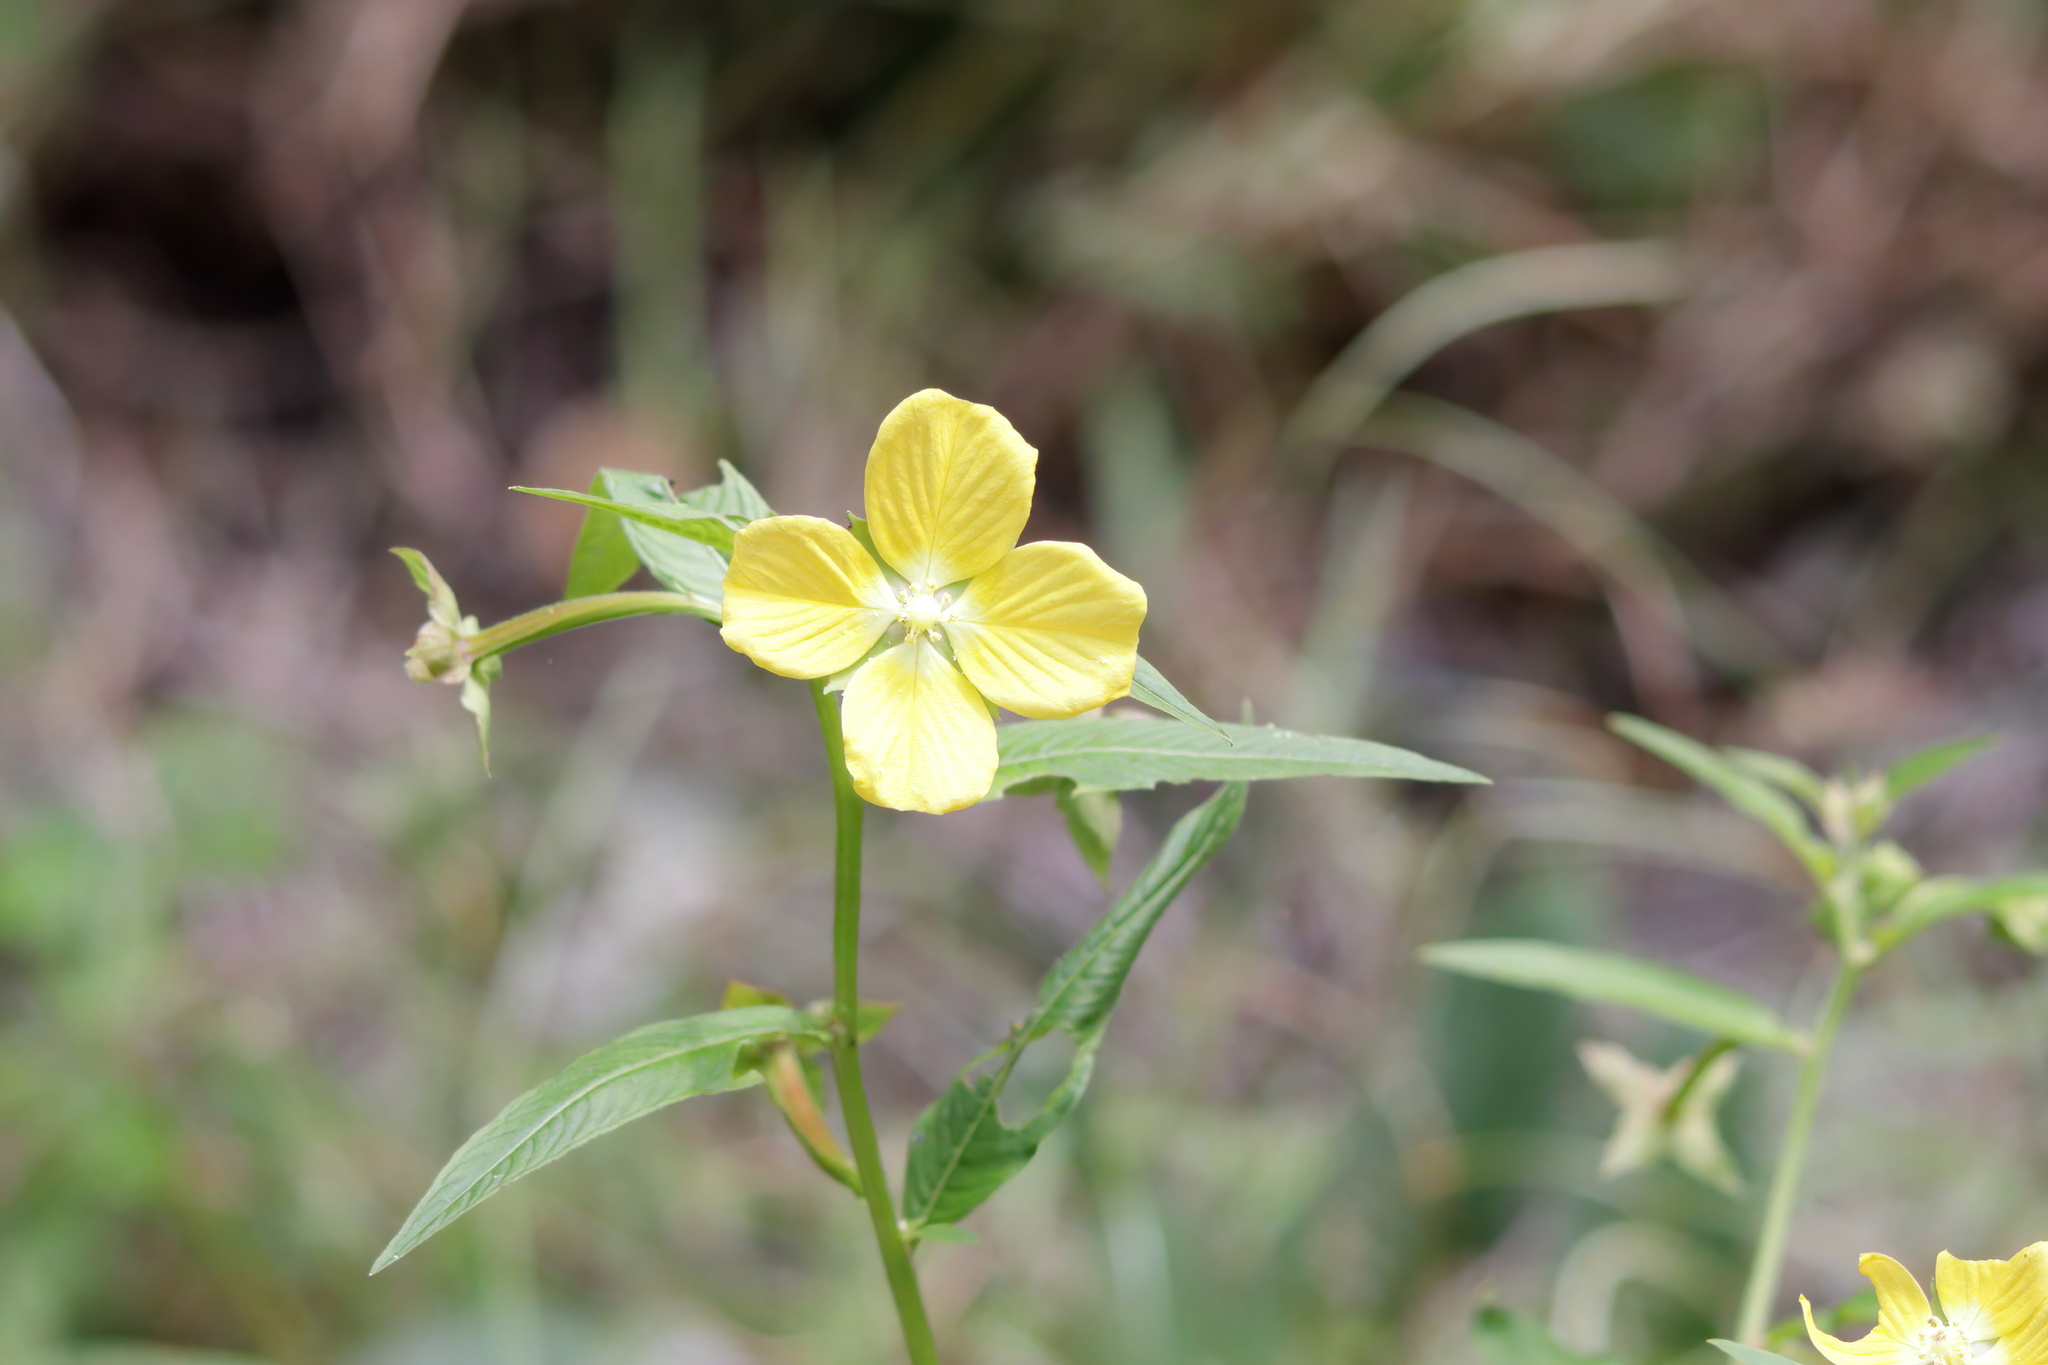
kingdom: Plantae
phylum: Tracheophyta
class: Magnoliopsida
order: Myrtales
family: Onagraceae
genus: Ludwigia
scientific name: Ludwigia octovalvis
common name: Water-primrose
